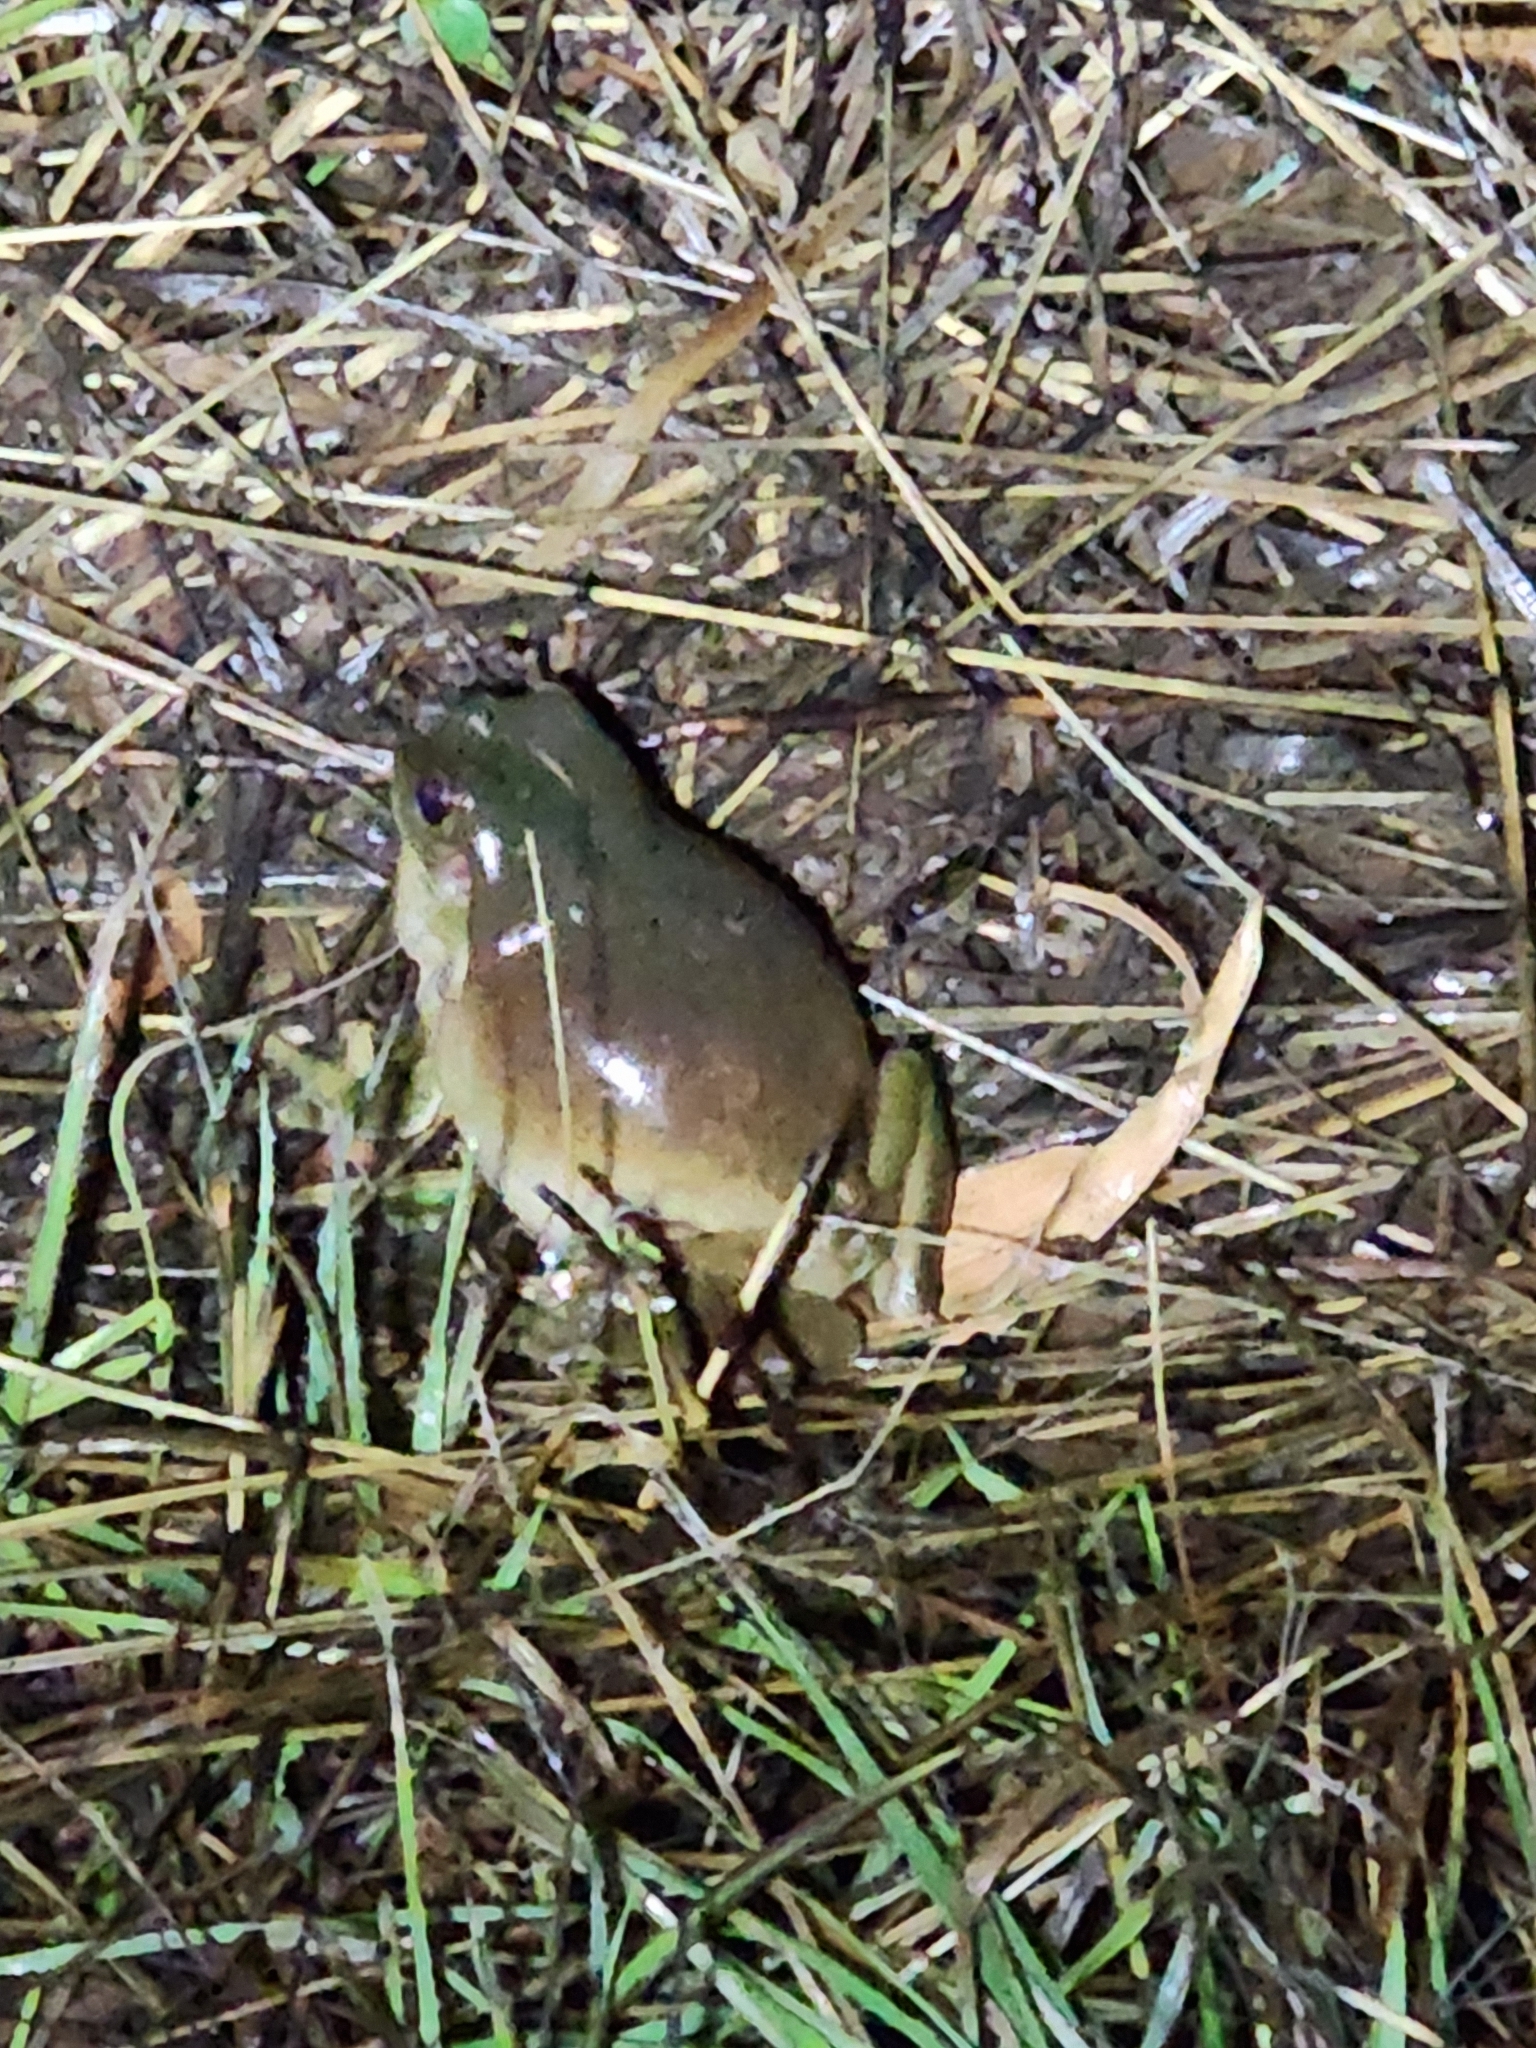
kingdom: Animalia
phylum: Chordata
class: Amphibia
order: Anura
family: Pelodryadidae
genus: Ranoidea
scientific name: Ranoidea caerulea
